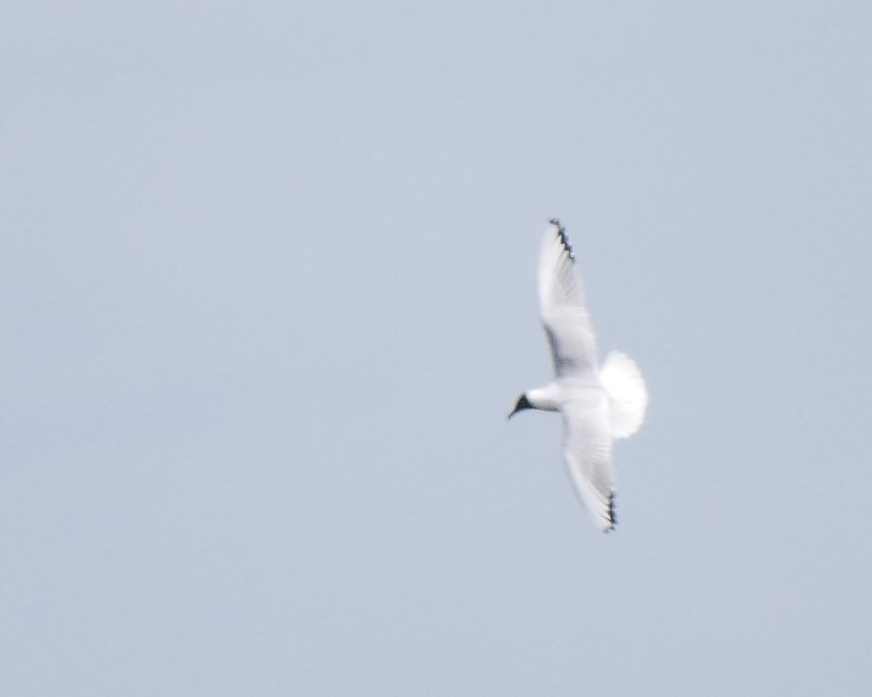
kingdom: Animalia
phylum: Chordata
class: Aves
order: Charadriiformes
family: Laridae
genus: Chroicocephalus
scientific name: Chroicocephalus ridibundus
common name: Black-headed gull
